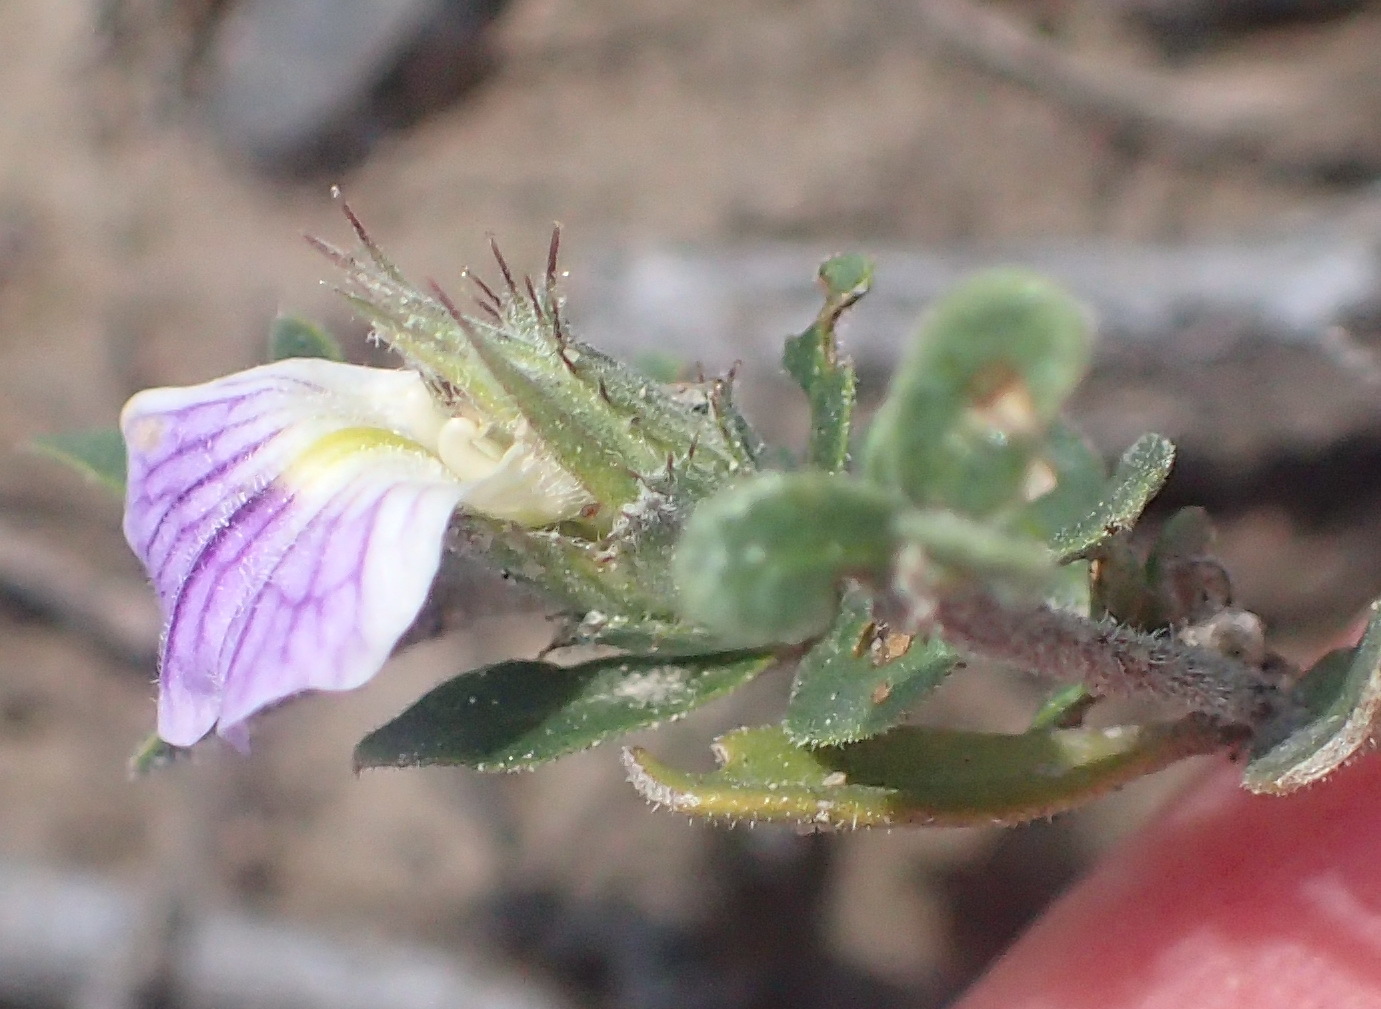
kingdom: Plantae
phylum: Tracheophyta
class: Magnoliopsida
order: Lamiales
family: Acanthaceae
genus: Blepharis
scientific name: Blepharis integrifolia
